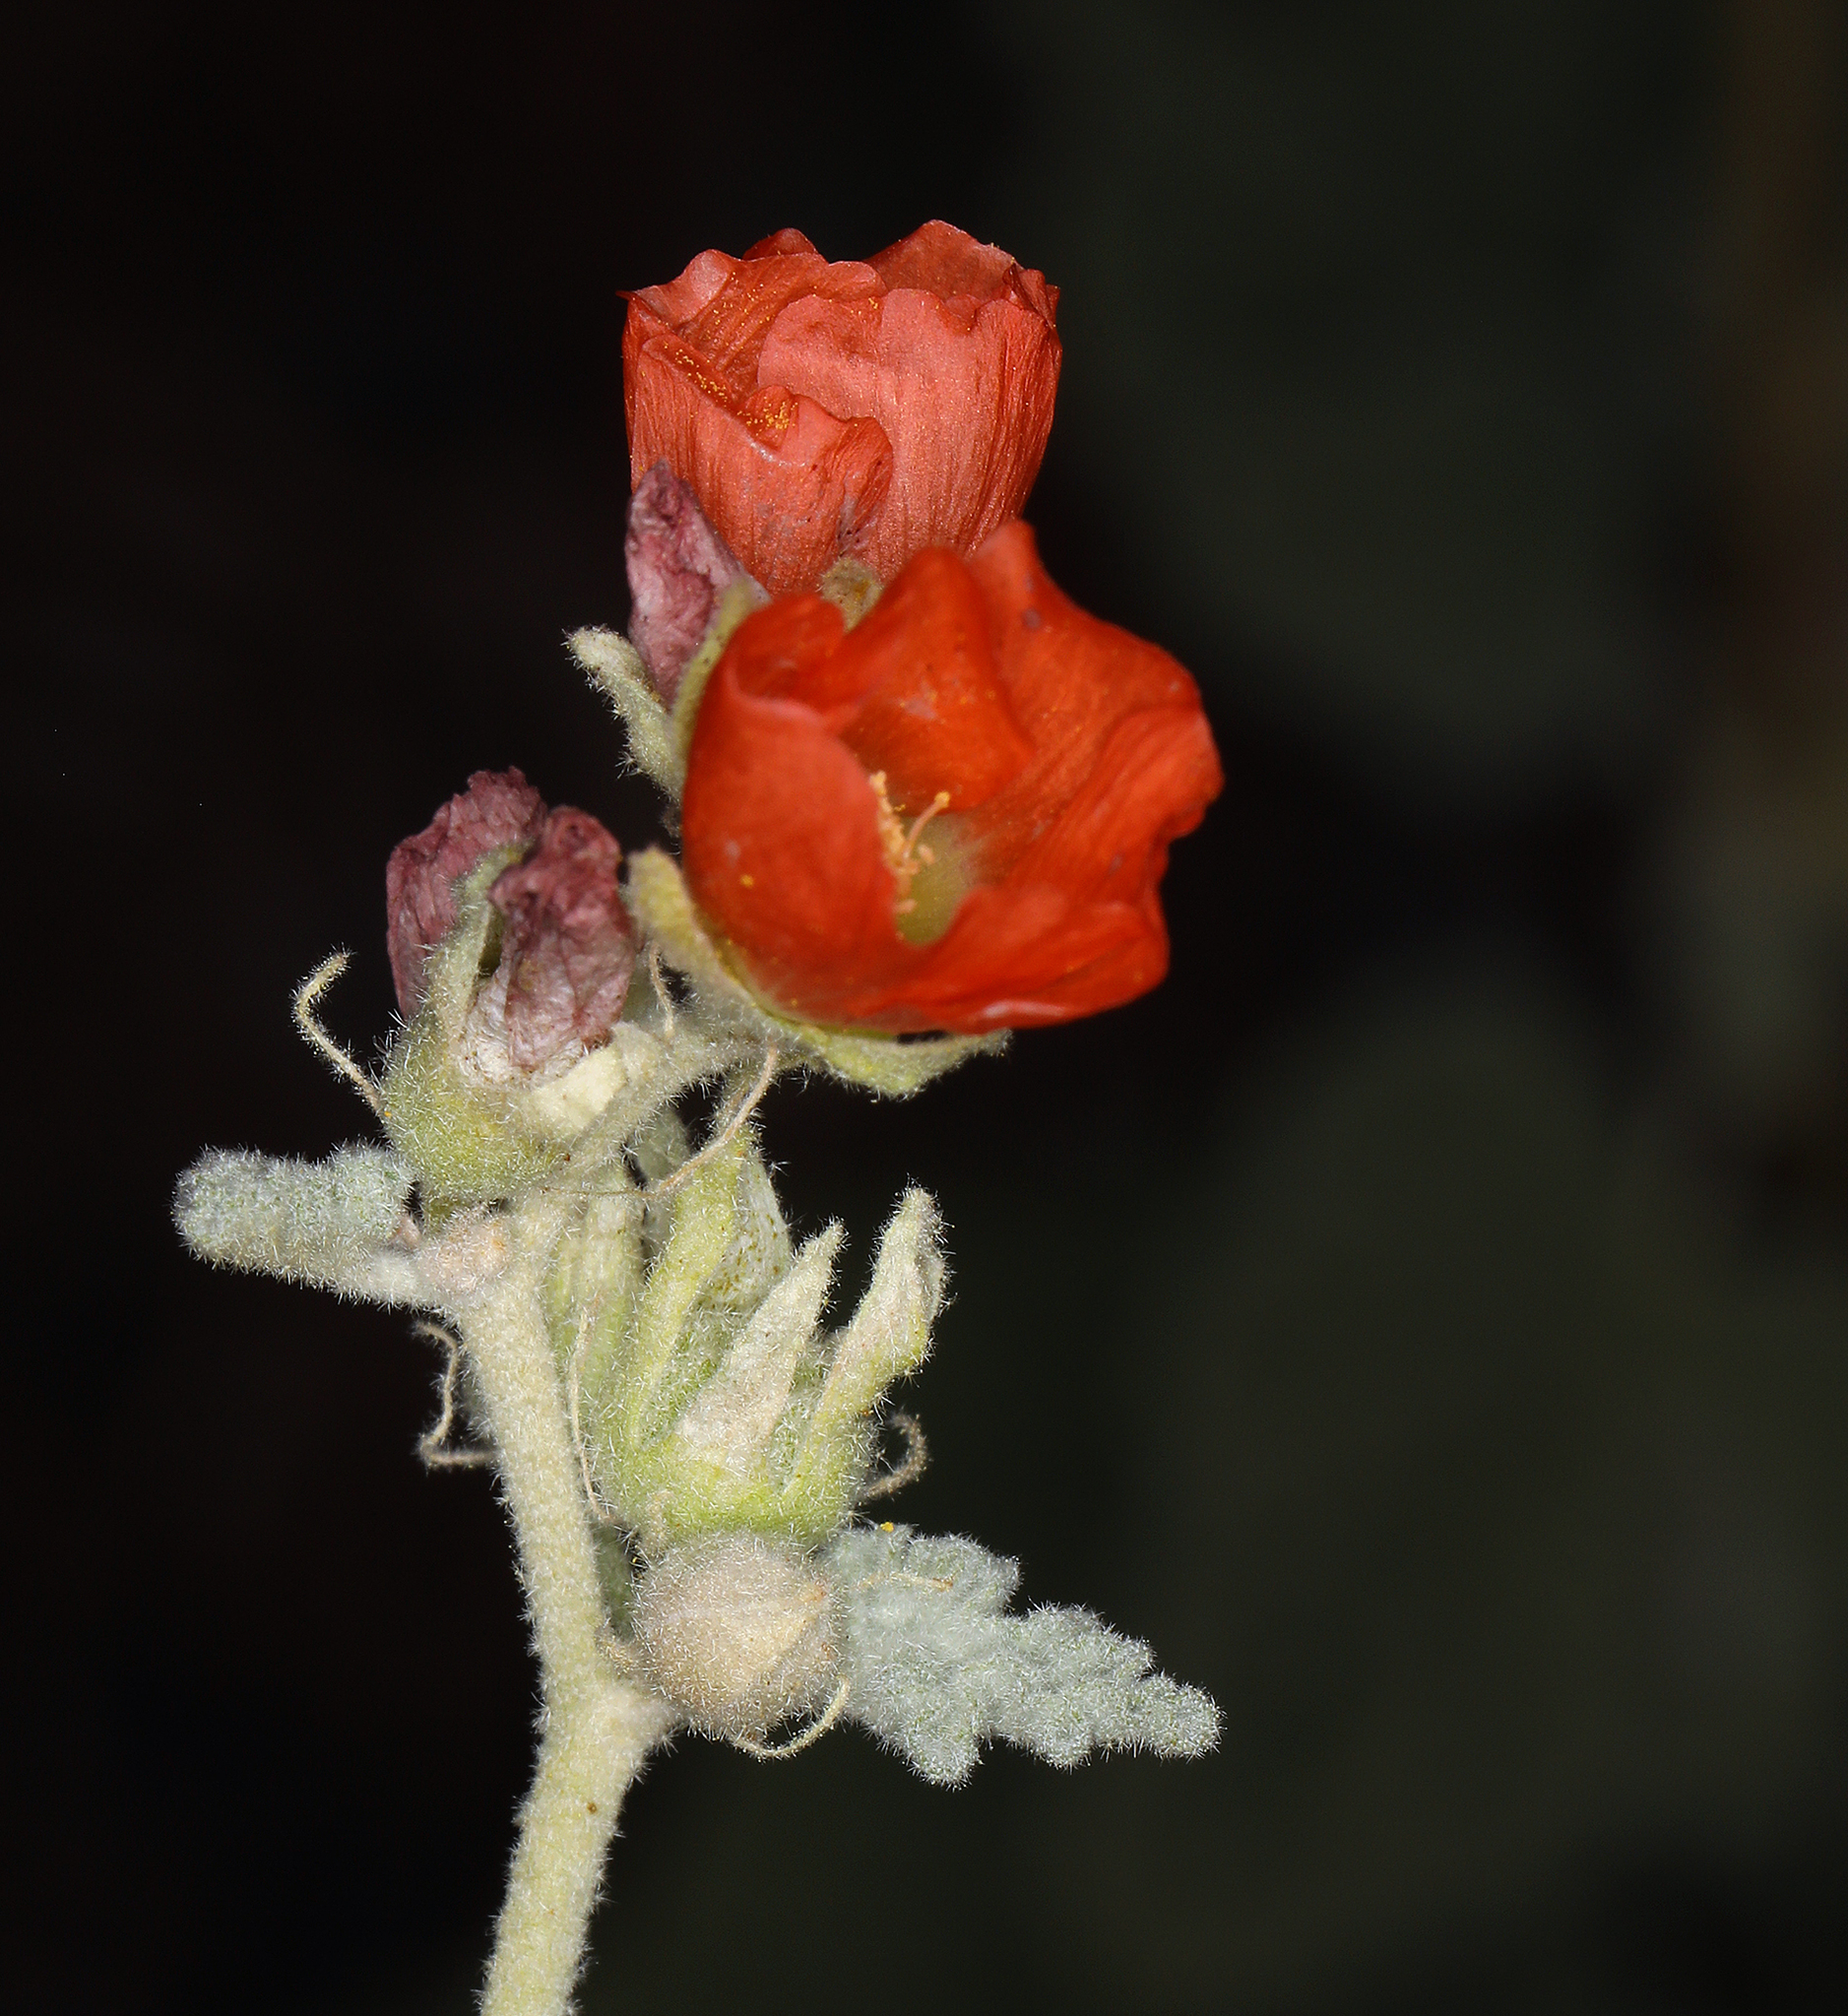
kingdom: Plantae
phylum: Tracheophyta
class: Magnoliopsida
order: Malvales
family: Malvaceae
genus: Sphaeralcea
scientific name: Sphaeralcea ambigua
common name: Apricot globe-mallow
